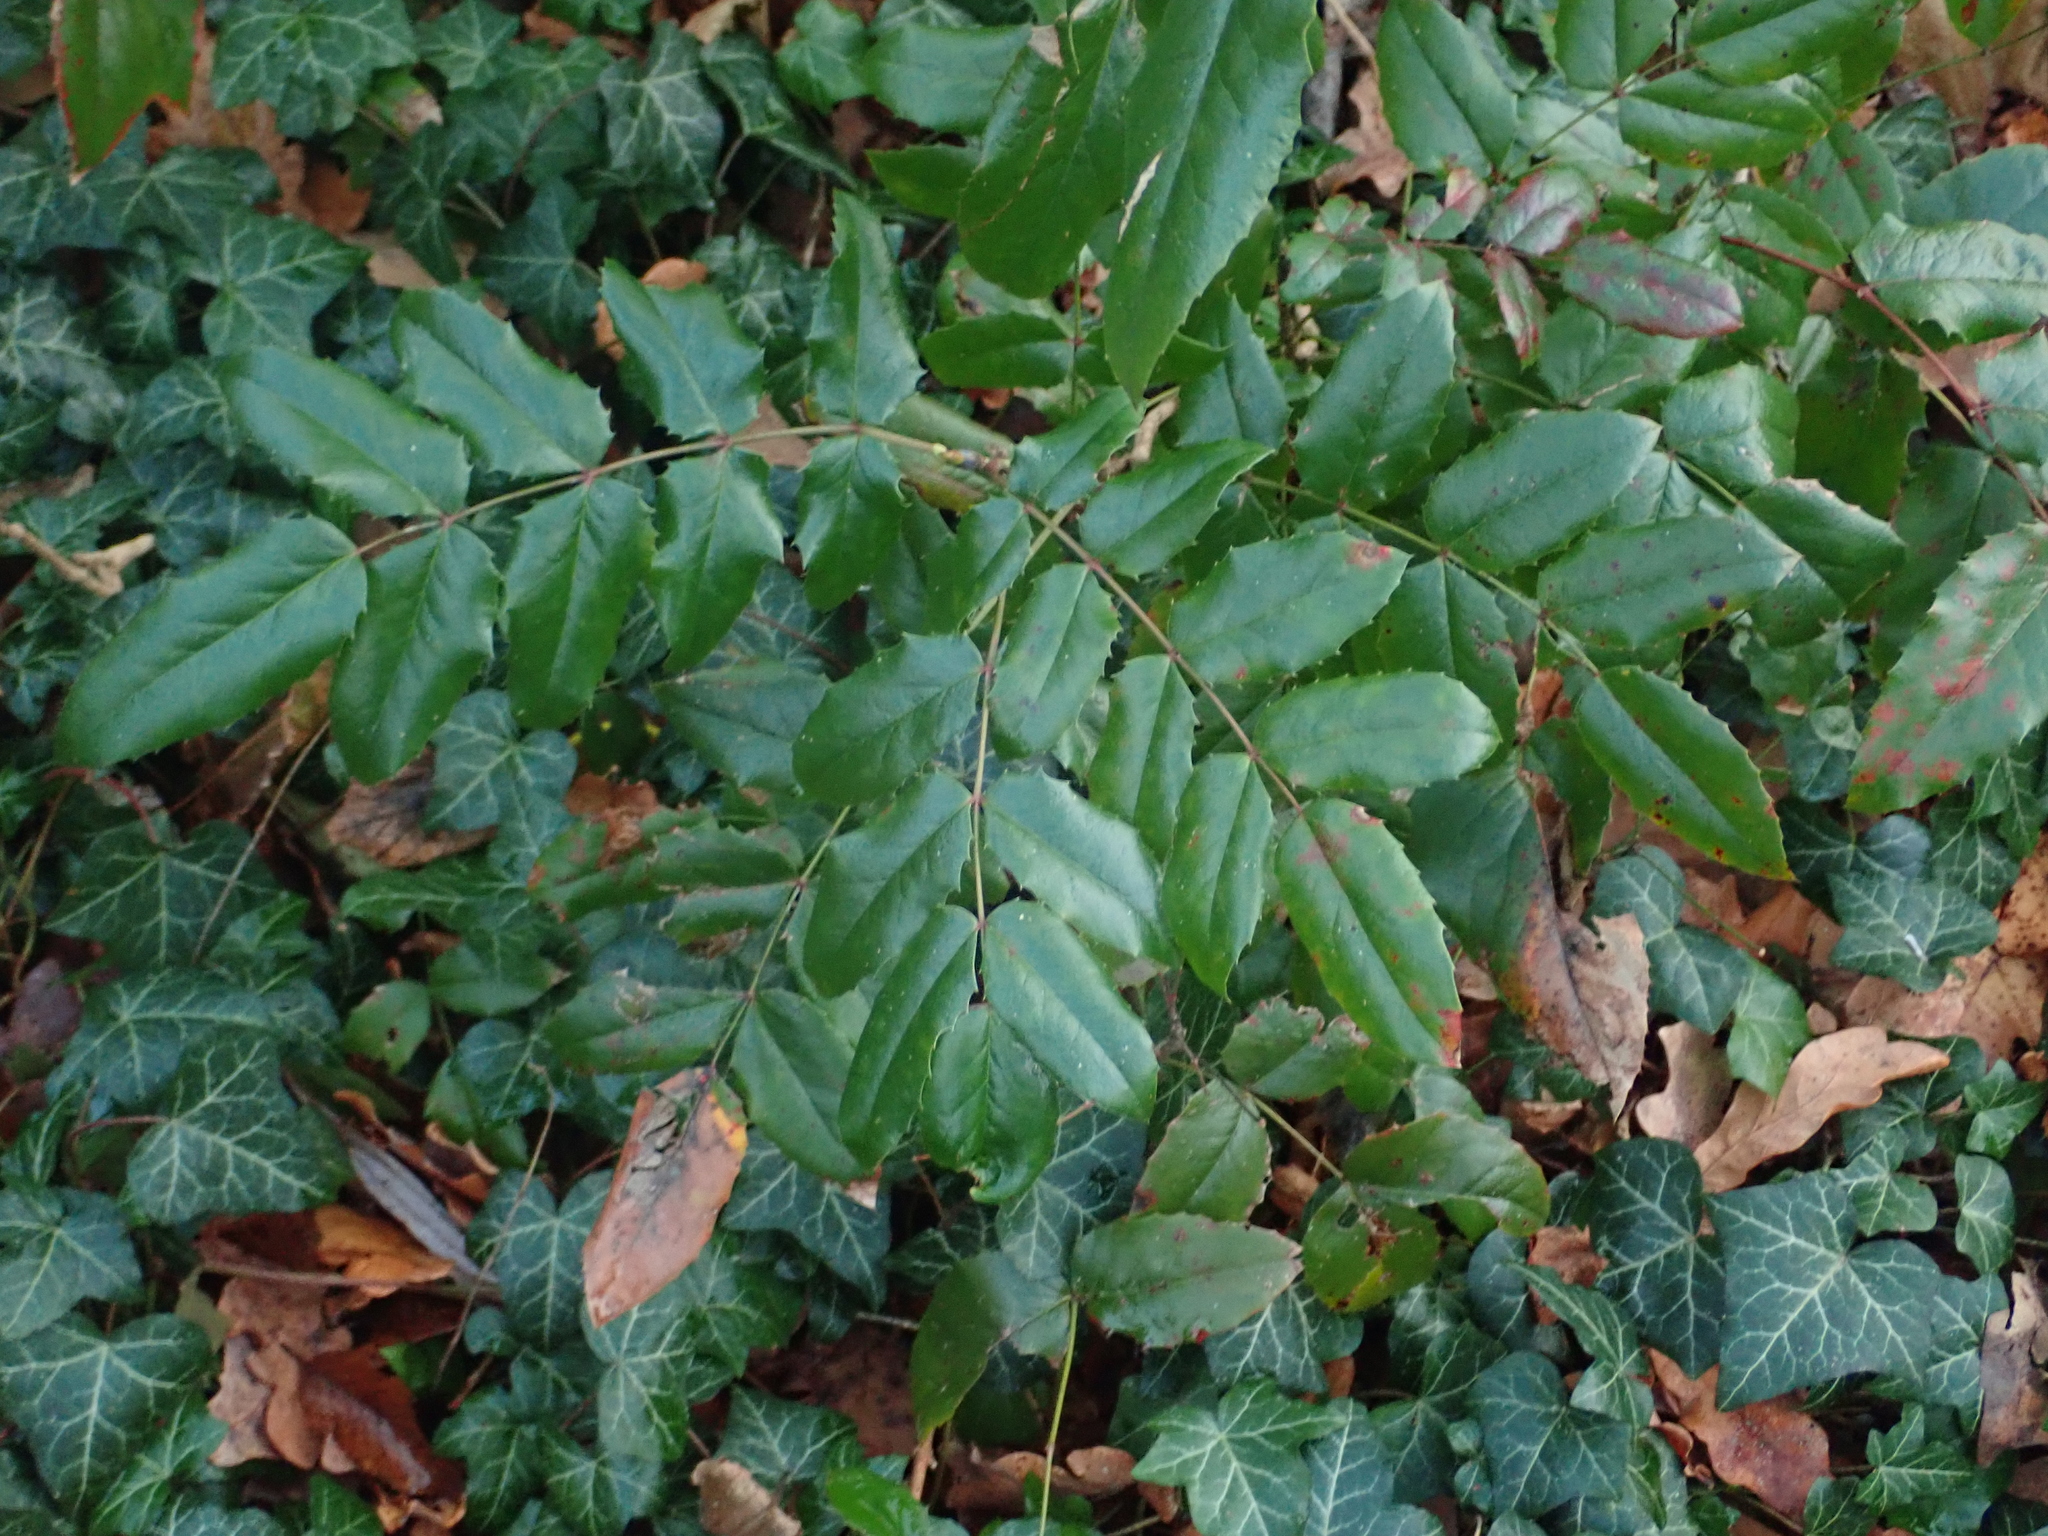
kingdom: Plantae
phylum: Tracheophyta
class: Magnoliopsida
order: Ranunculales
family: Berberidaceae
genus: Mahonia
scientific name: Mahonia aquifolium
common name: Oregon-grape
